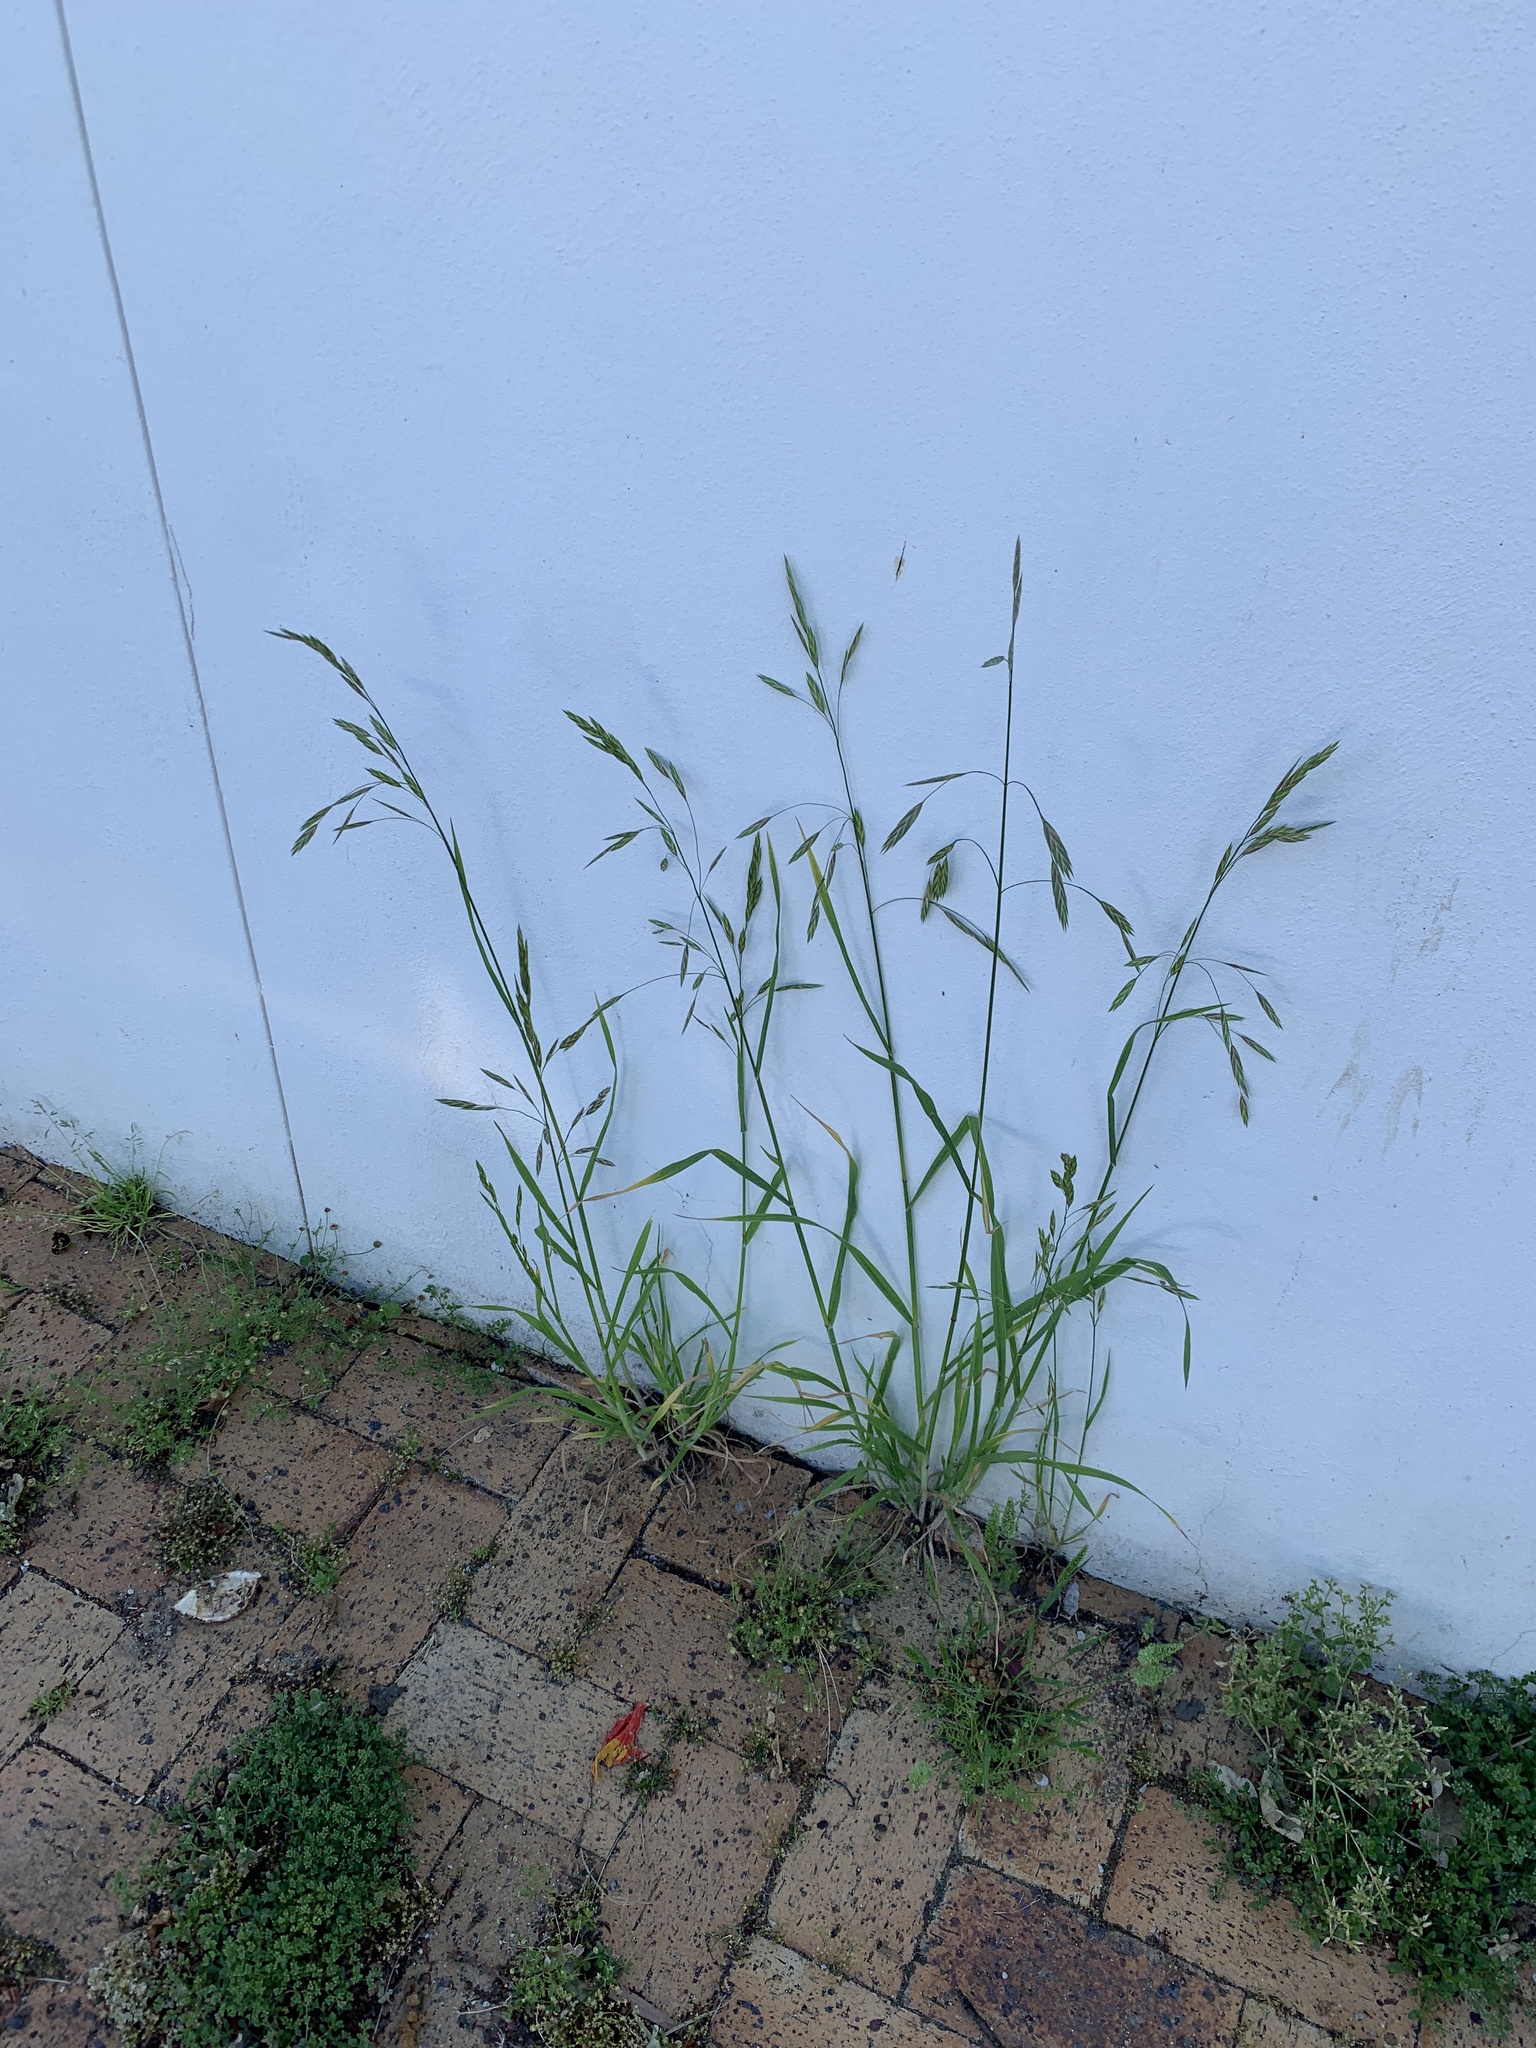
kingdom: Plantae
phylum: Tracheophyta
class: Liliopsida
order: Poales
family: Poaceae
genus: Bromus
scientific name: Bromus catharticus
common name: Rescuegrass
